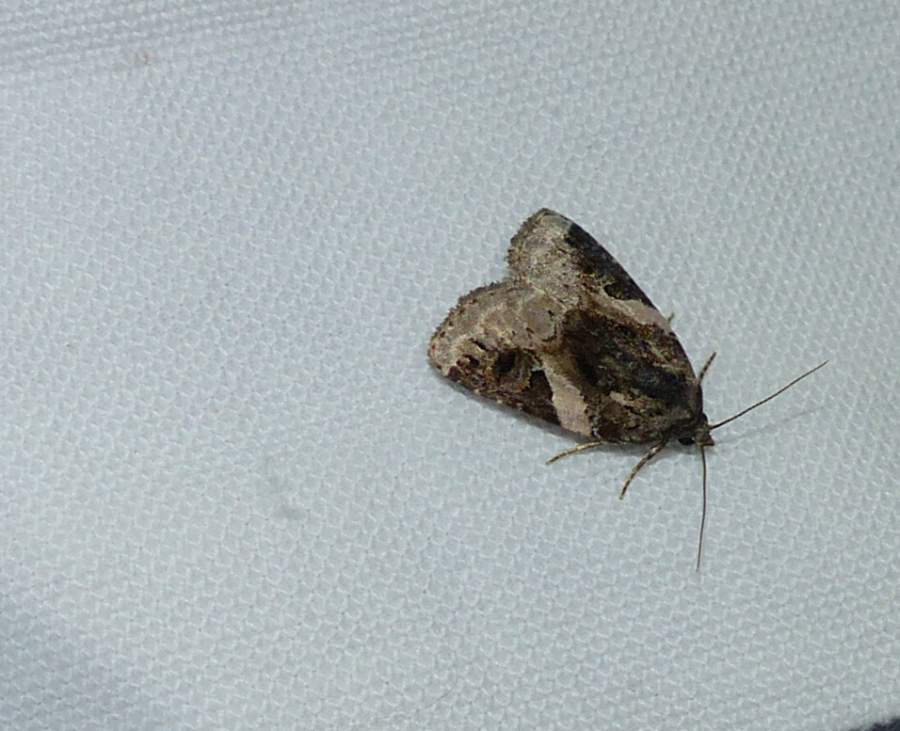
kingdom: Animalia
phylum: Arthropoda
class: Insecta
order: Lepidoptera
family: Noctuidae
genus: Pseudeustrotia
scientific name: Pseudeustrotia carneola
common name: Pink-barred lithacodia moth
